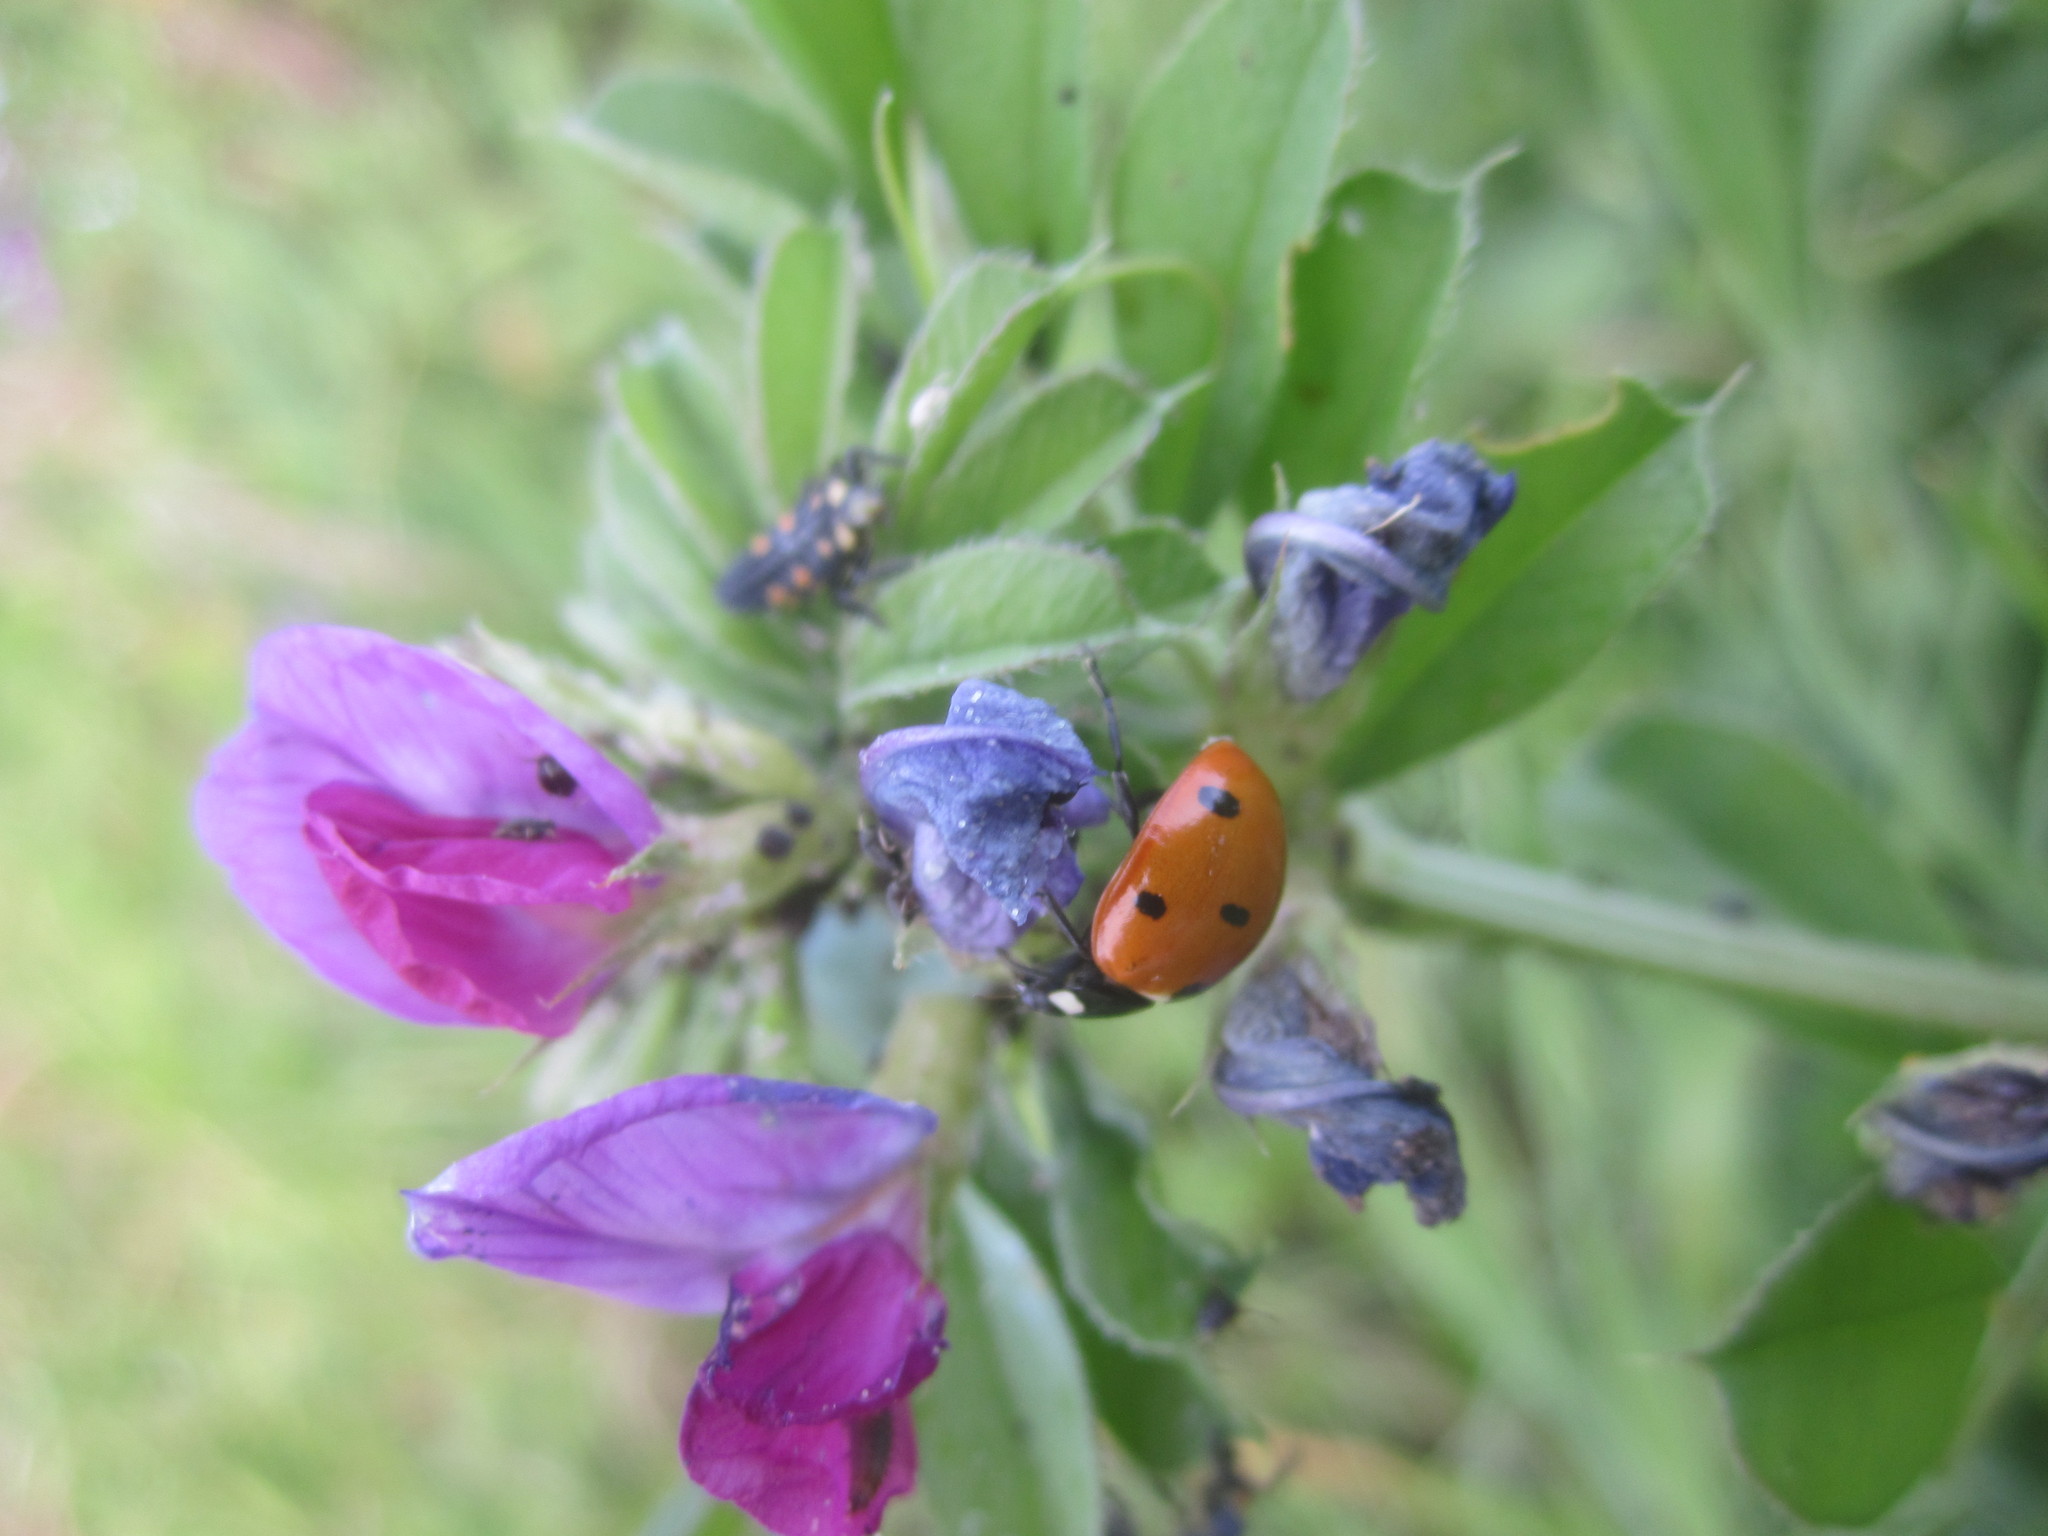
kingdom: Animalia
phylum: Arthropoda
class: Insecta
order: Coleoptera
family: Coccinellidae
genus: Coccinella
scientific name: Coccinella septempunctata
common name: Sevenspotted lady beetle
